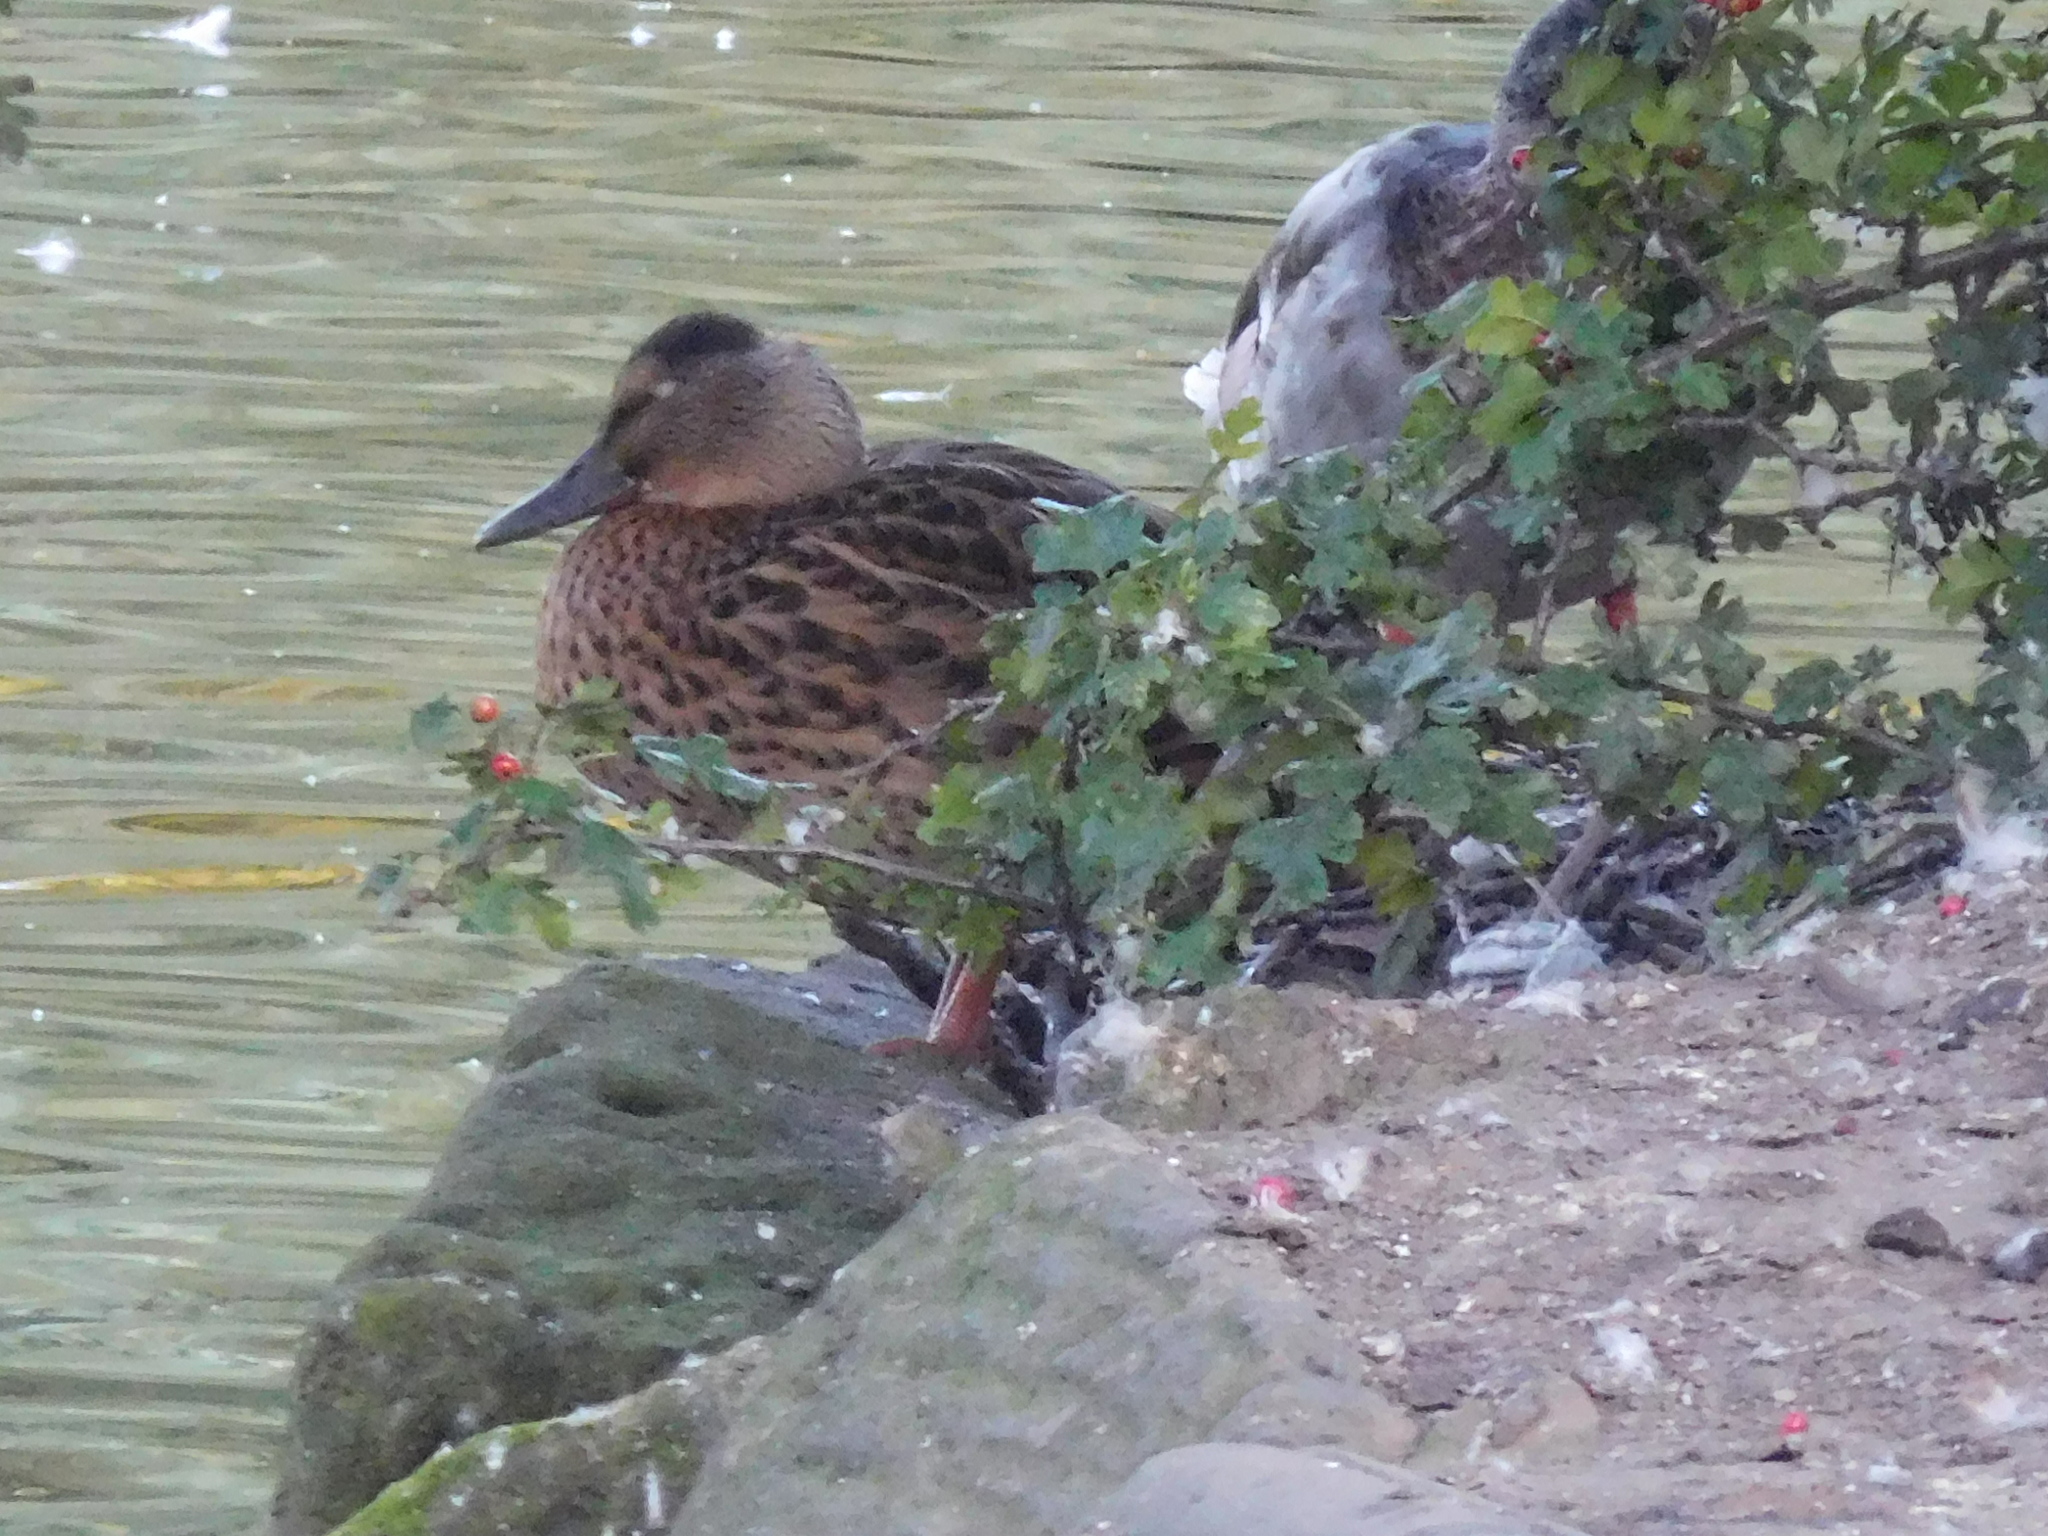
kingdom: Animalia
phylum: Chordata
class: Aves
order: Anseriformes
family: Anatidae
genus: Anas
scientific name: Anas platyrhynchos
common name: Mallard
